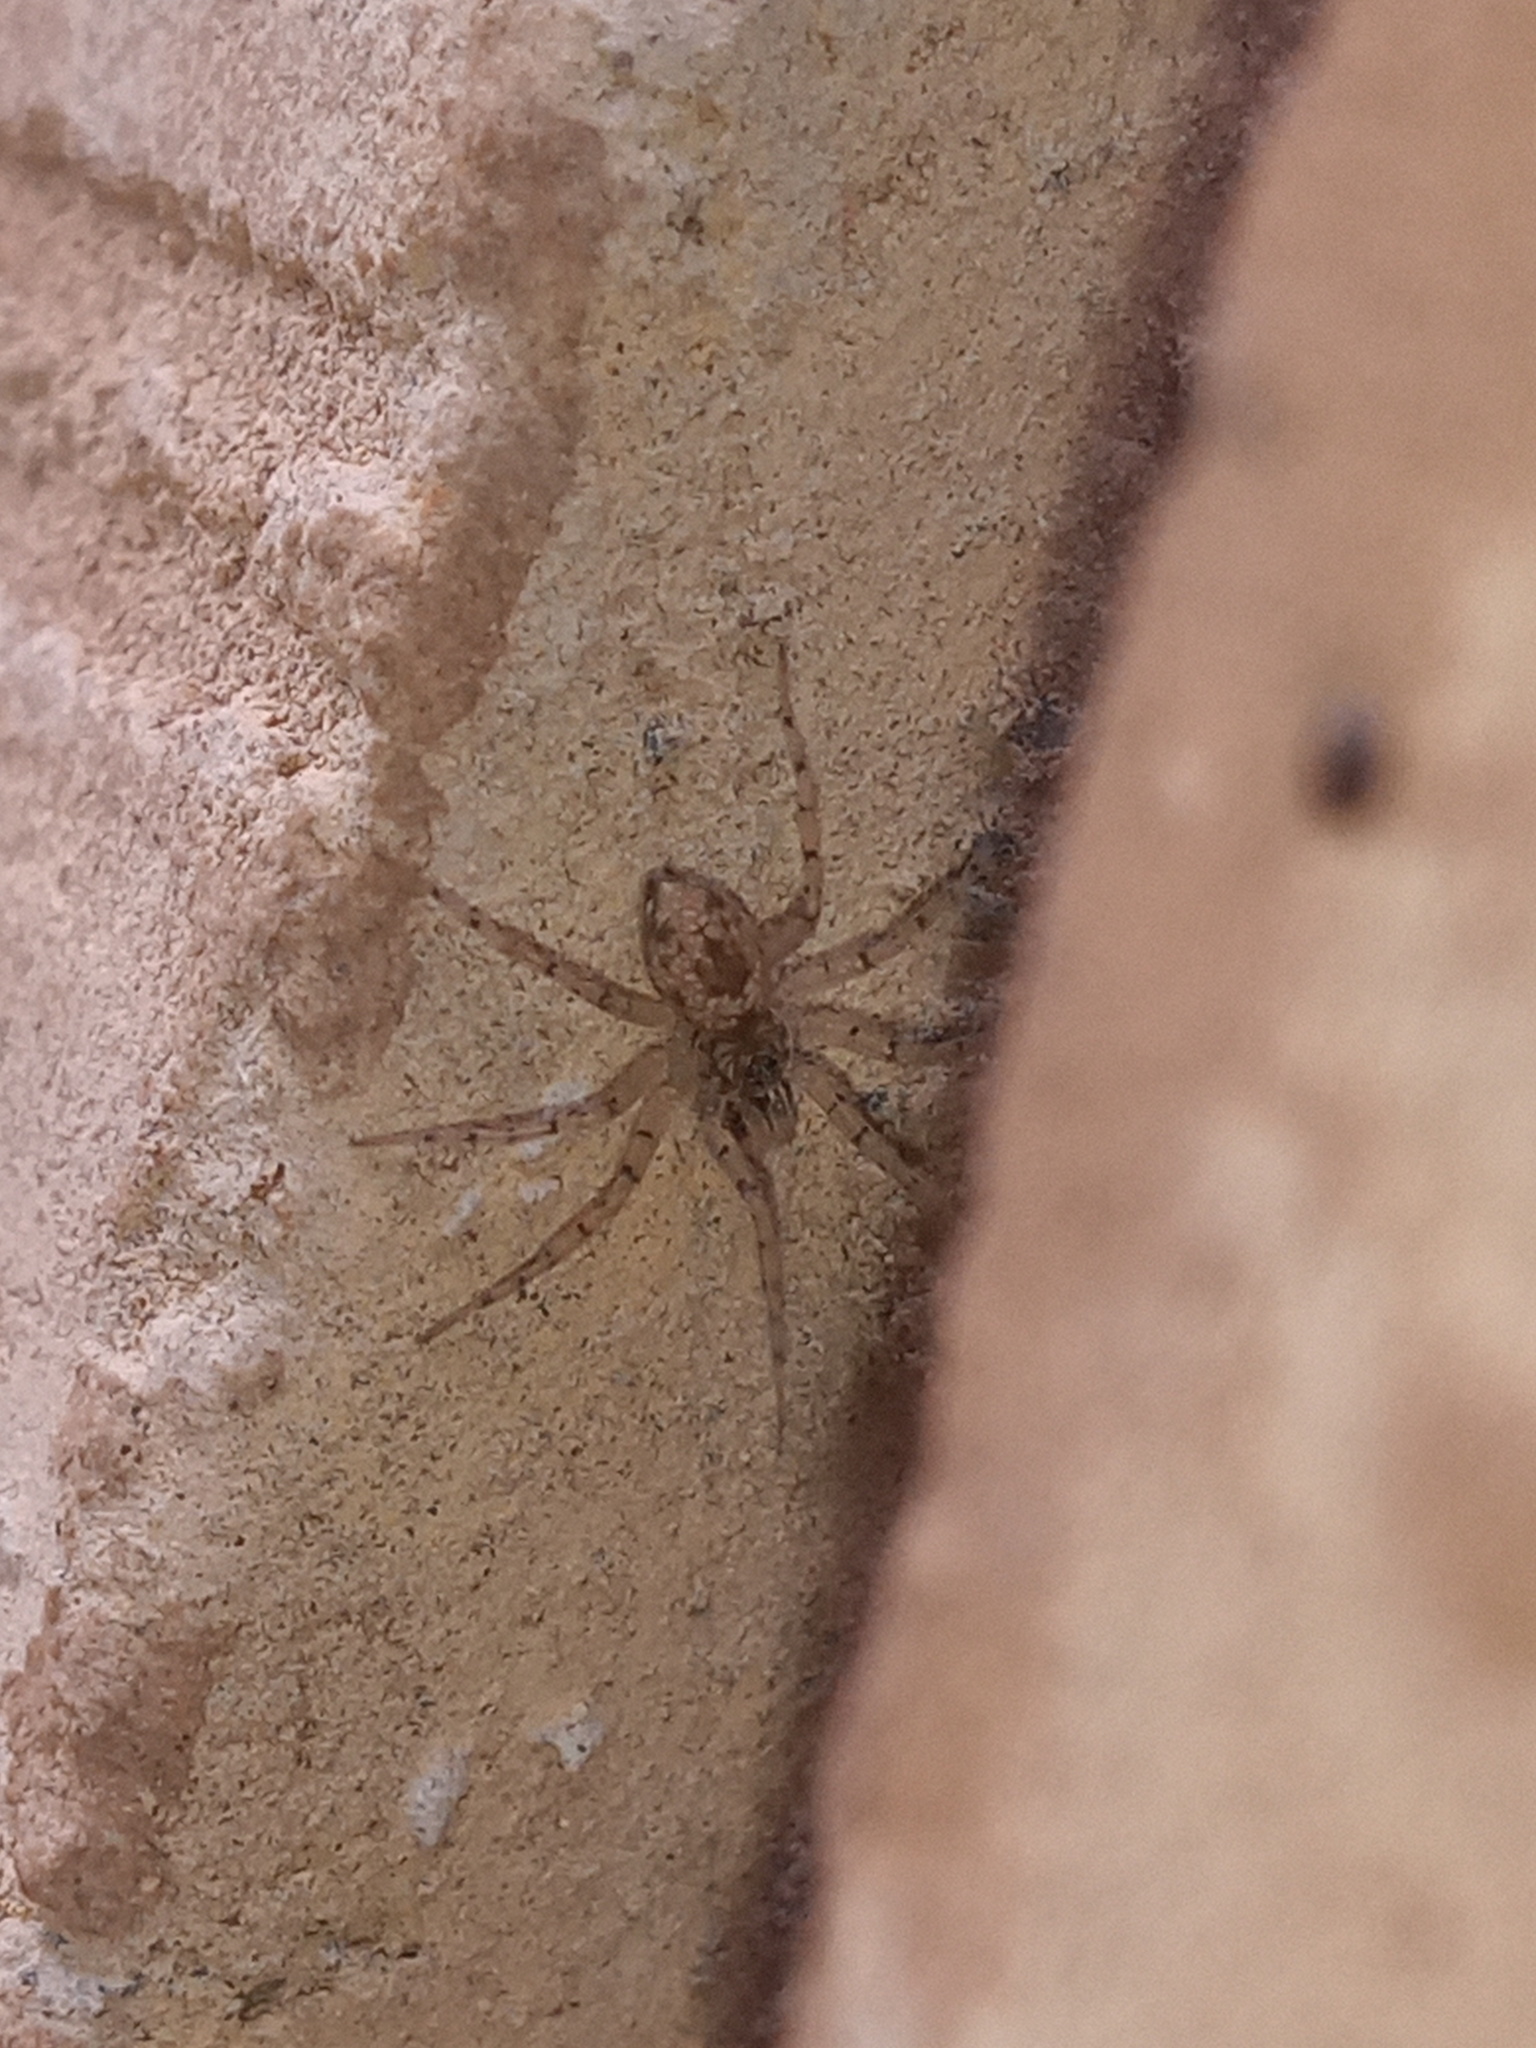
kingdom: Animalia
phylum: Arthropoda
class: Arachnida
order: Araneae
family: Oecobiidae
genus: Oecobius
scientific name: Oecobius maculatus
